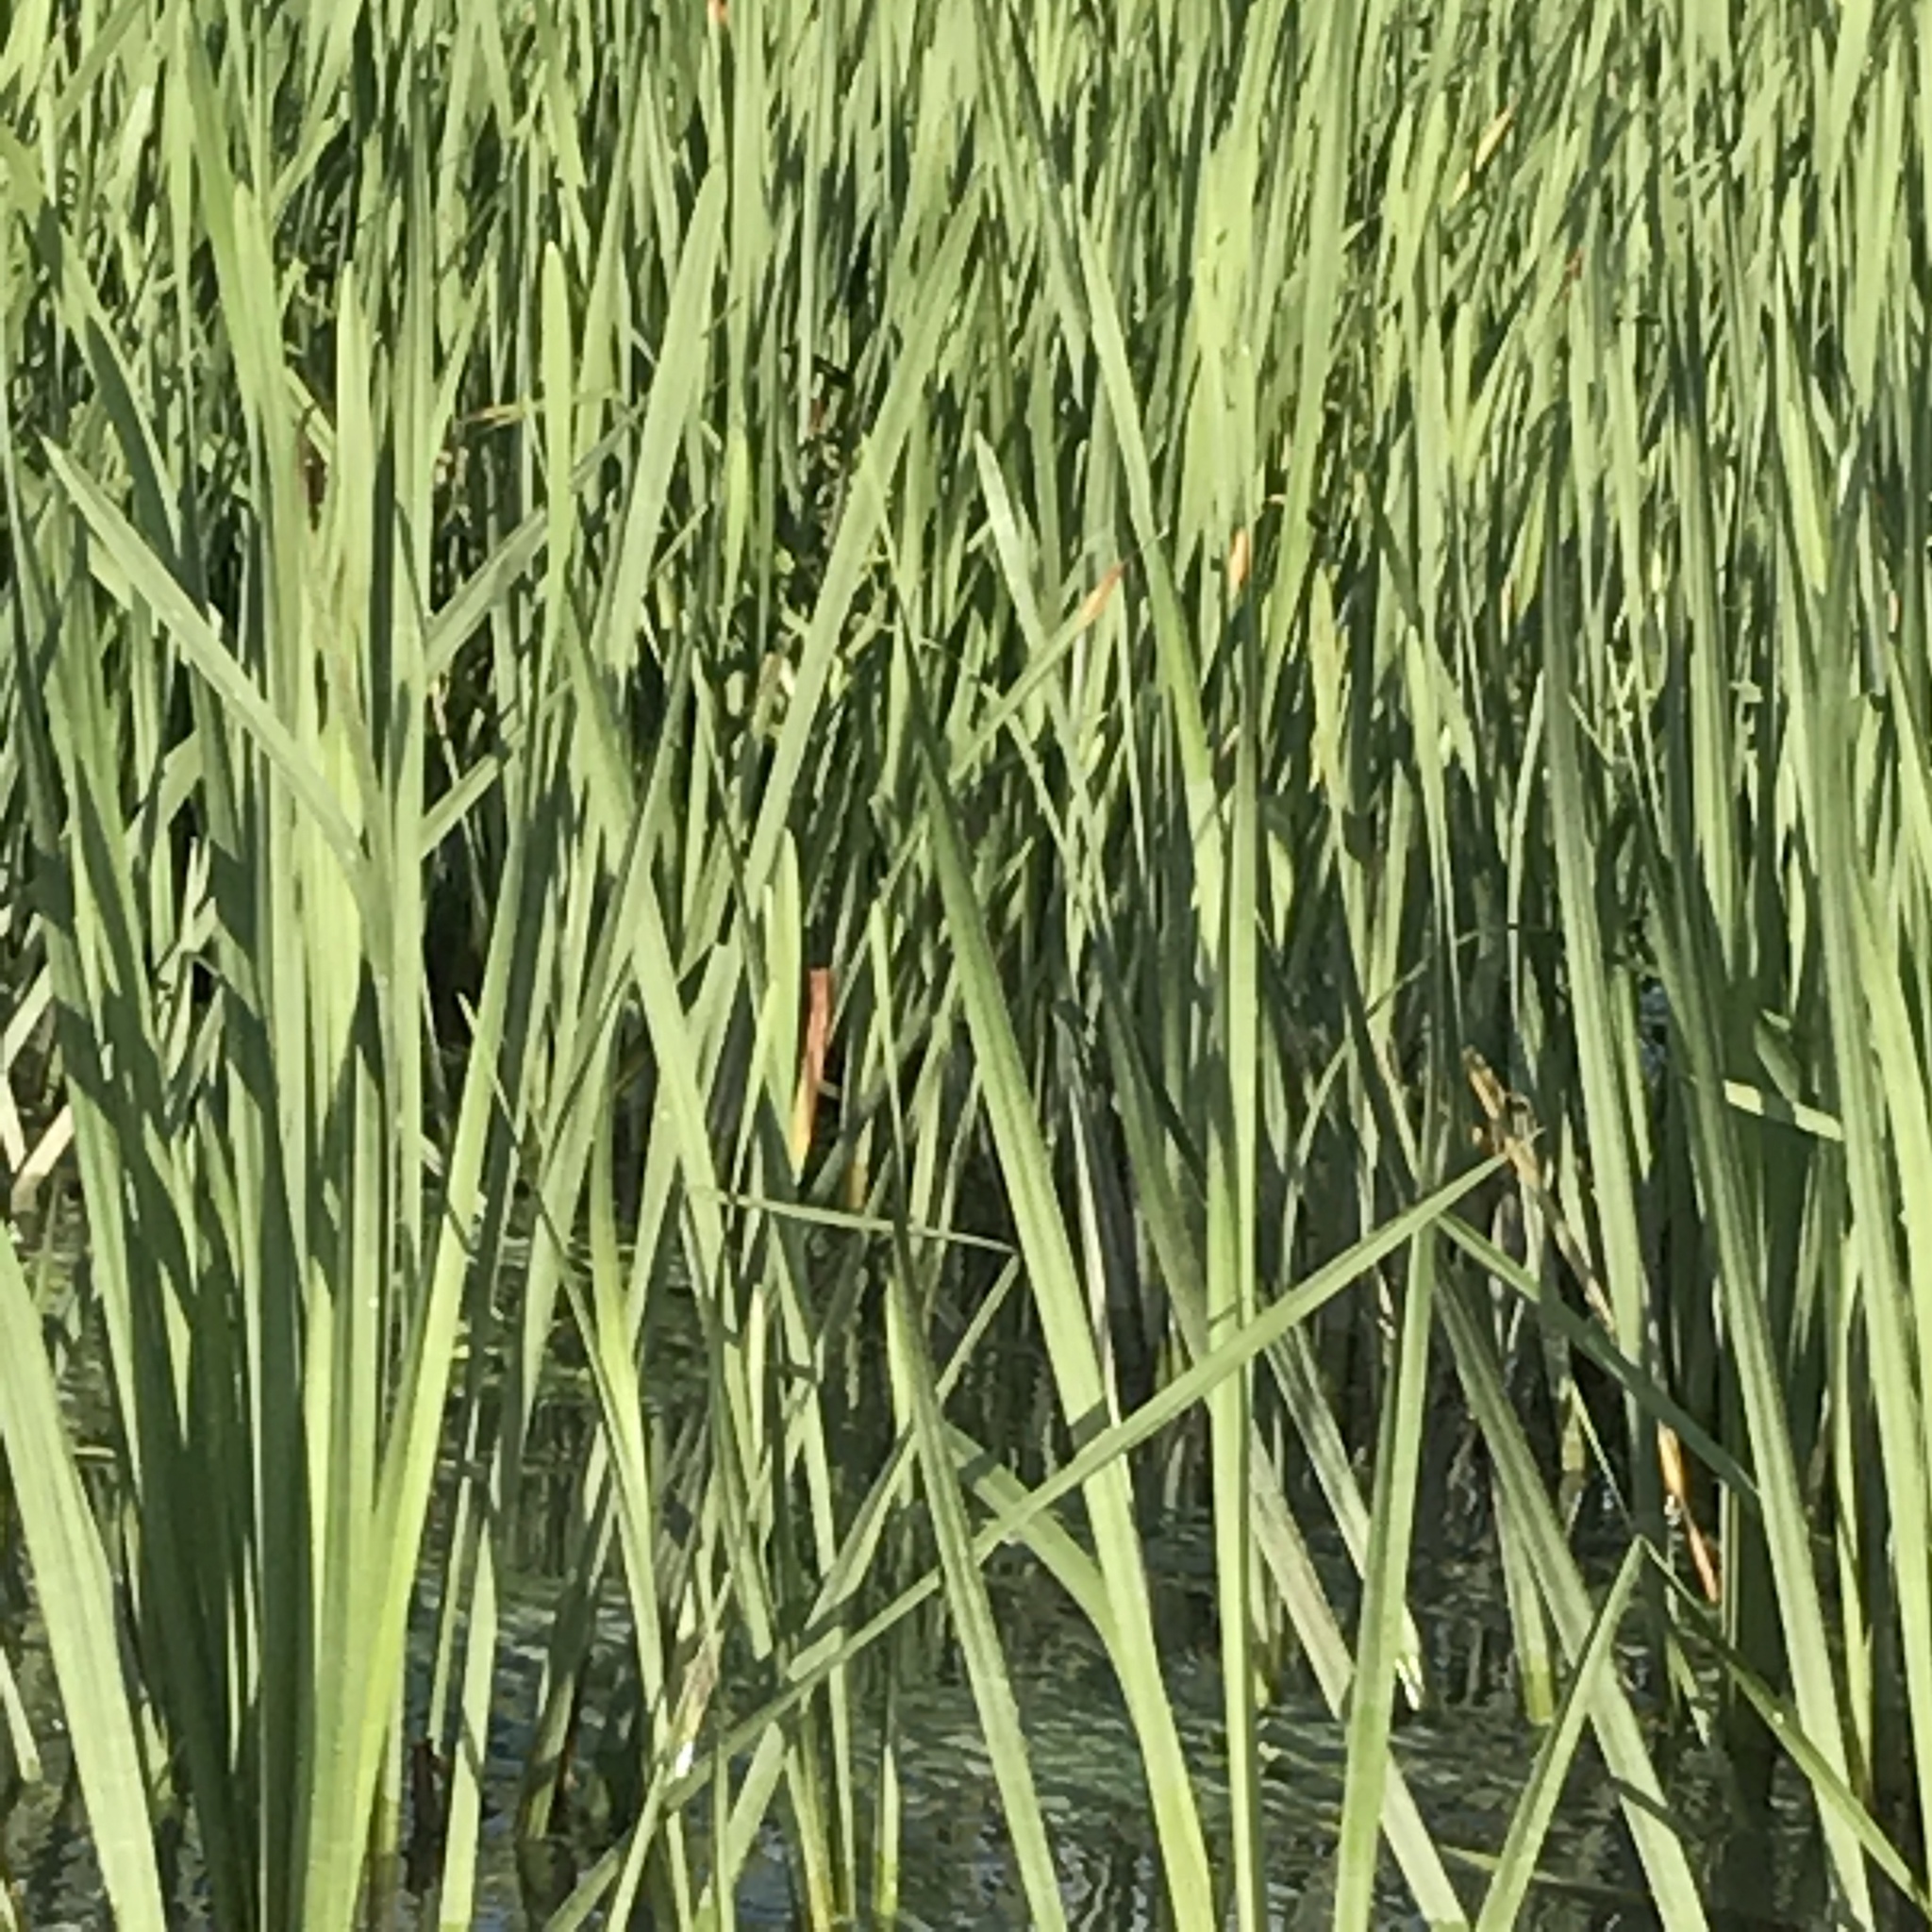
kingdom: Plantae
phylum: Tracheophyta
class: Liliopsida
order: Poales
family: Typhaceae
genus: Typha
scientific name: Typha latifolia
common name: Broadleaf cattail
